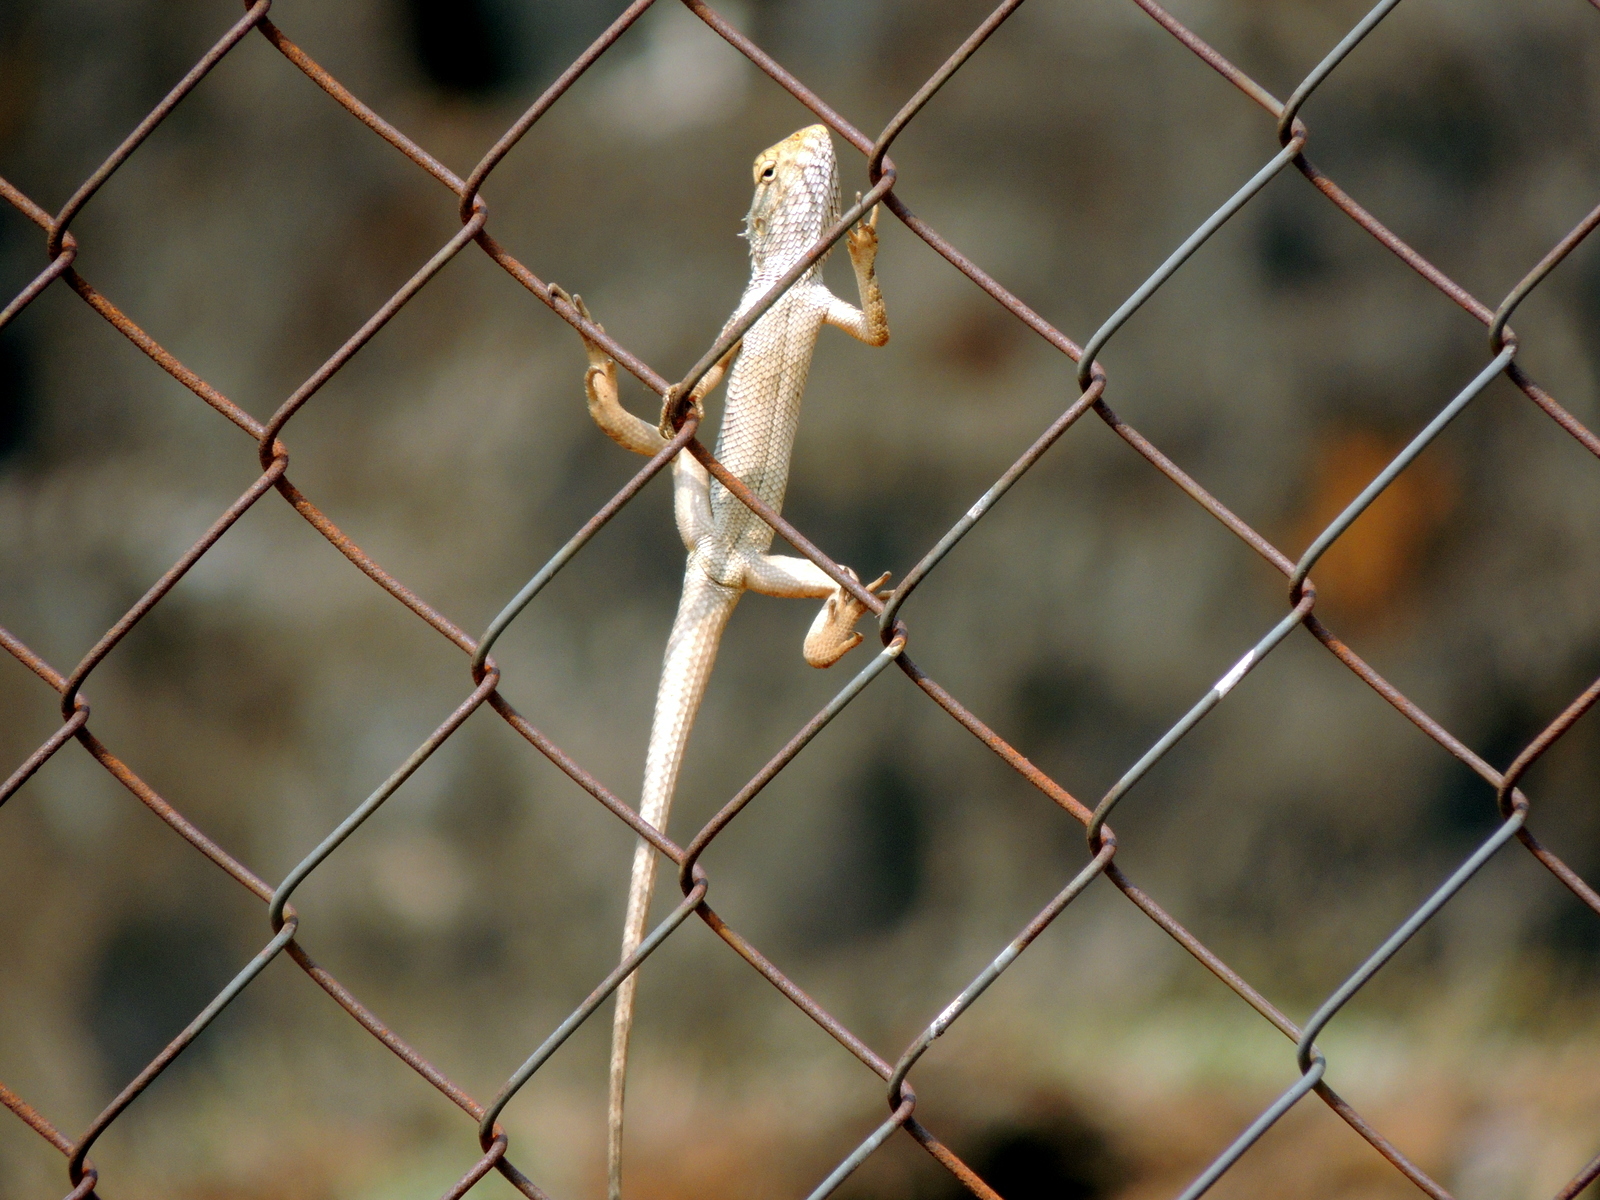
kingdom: Animalia
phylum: Chordata
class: Squamata
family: Agamidae
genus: Calotes
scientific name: Calotes versicolor
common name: Oriental garden lizard
